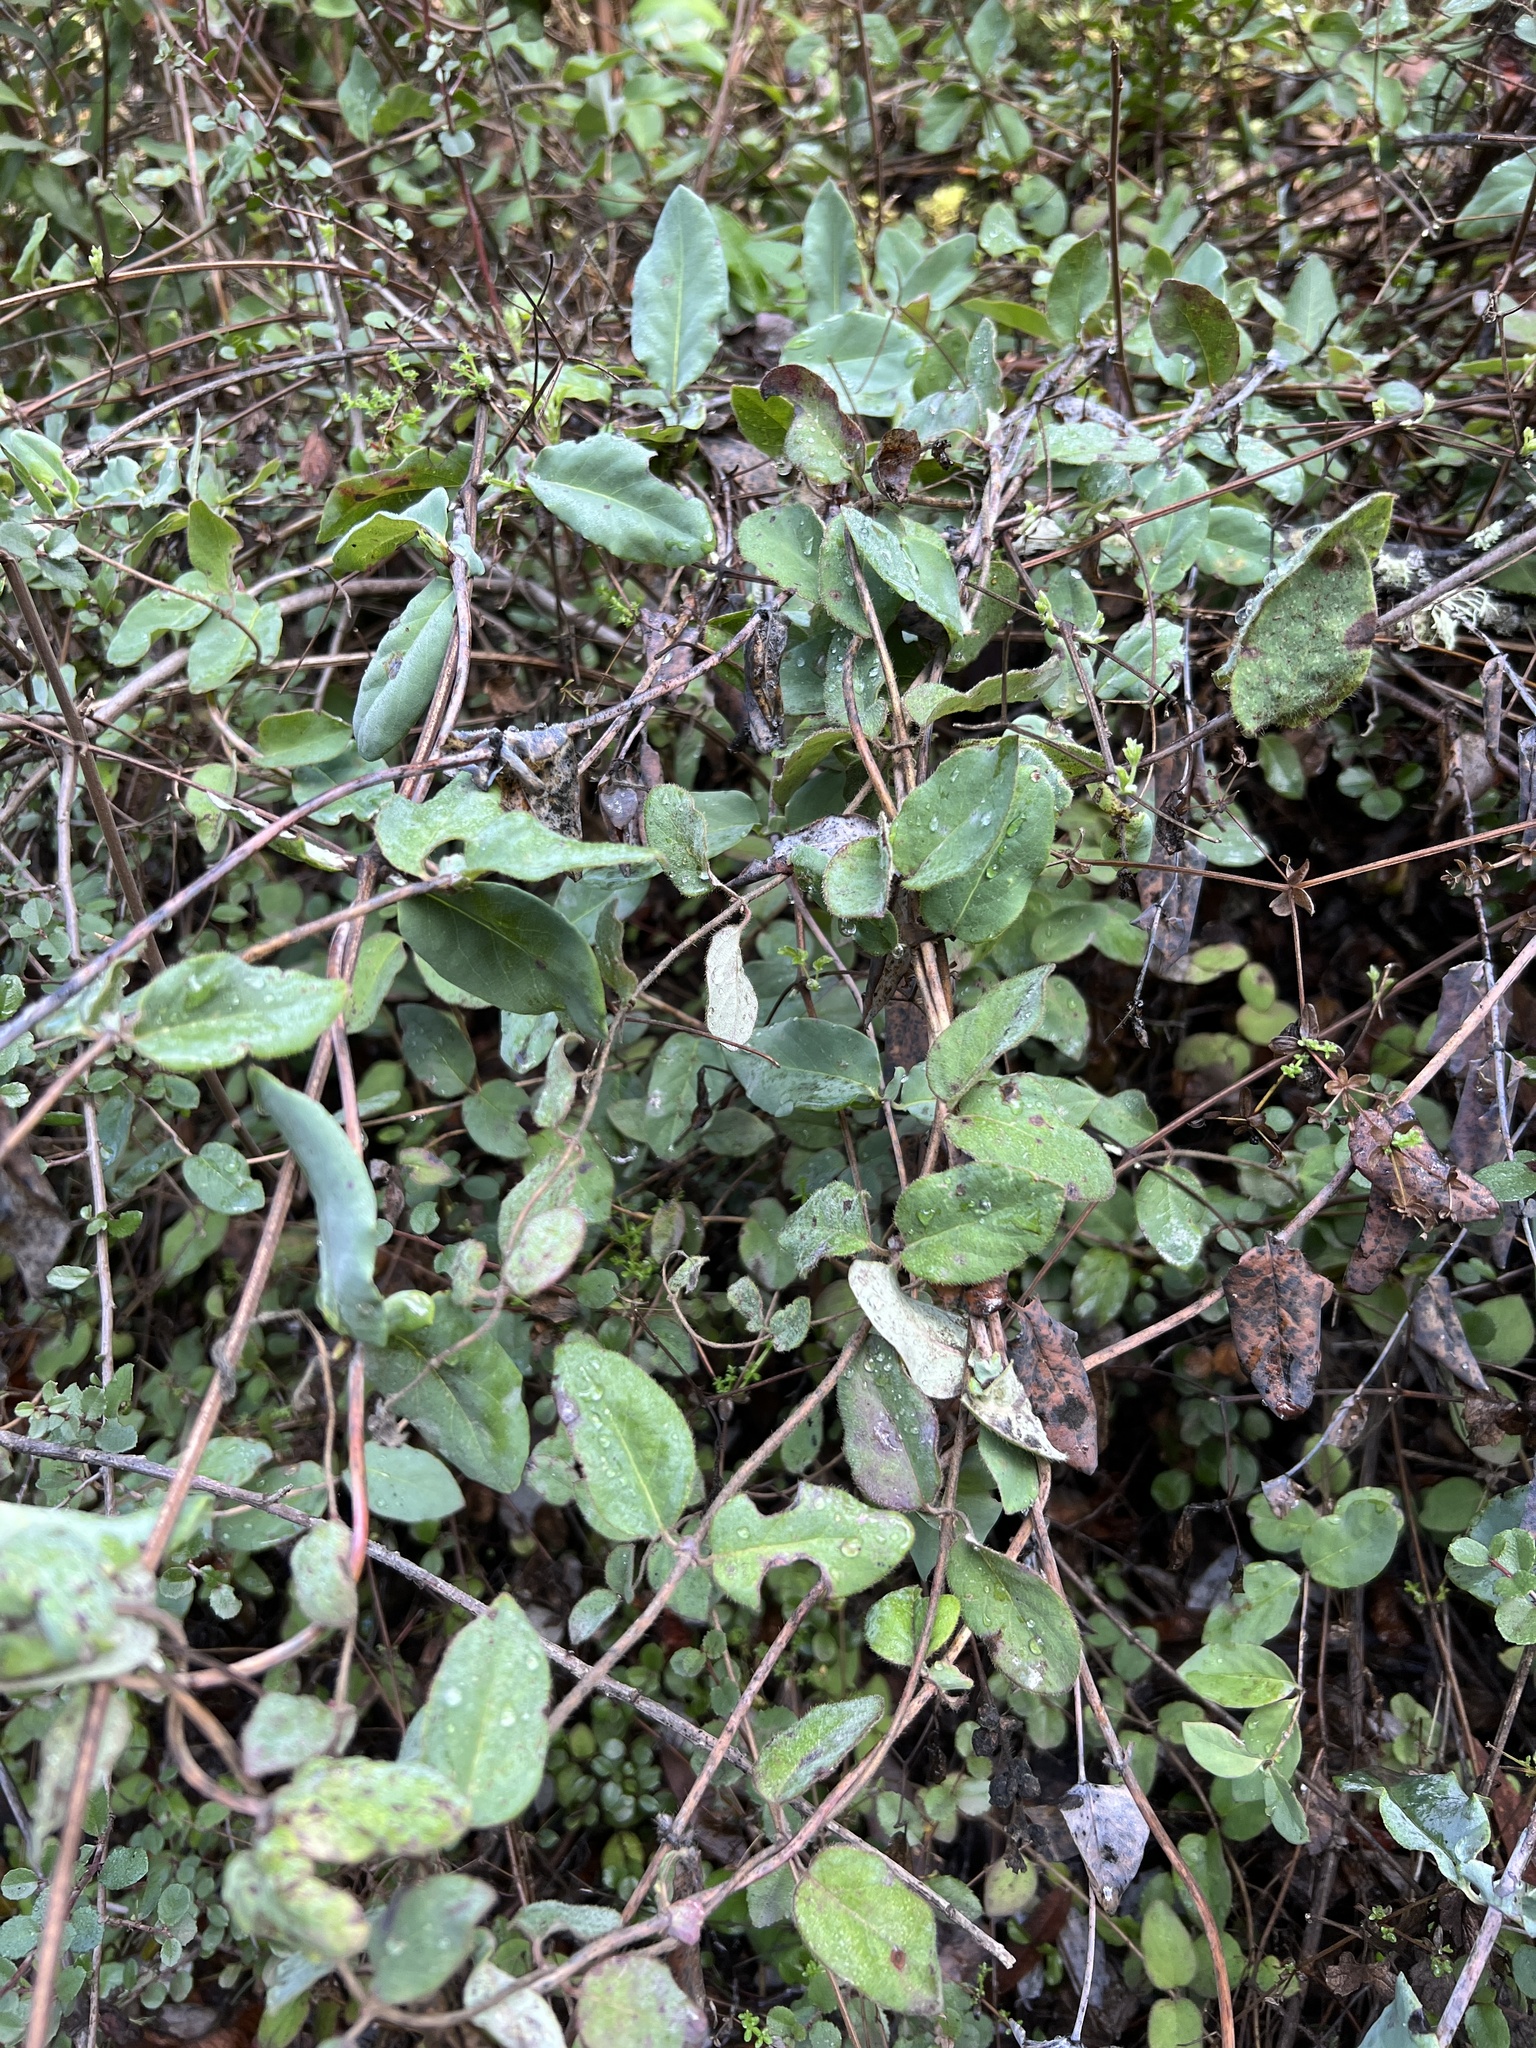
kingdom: Plantae
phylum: Tracheophyta
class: Magnoliopsida
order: Dipsacales
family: Caprifoliaceae
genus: Lonicera
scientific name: Lonicera hispidula
